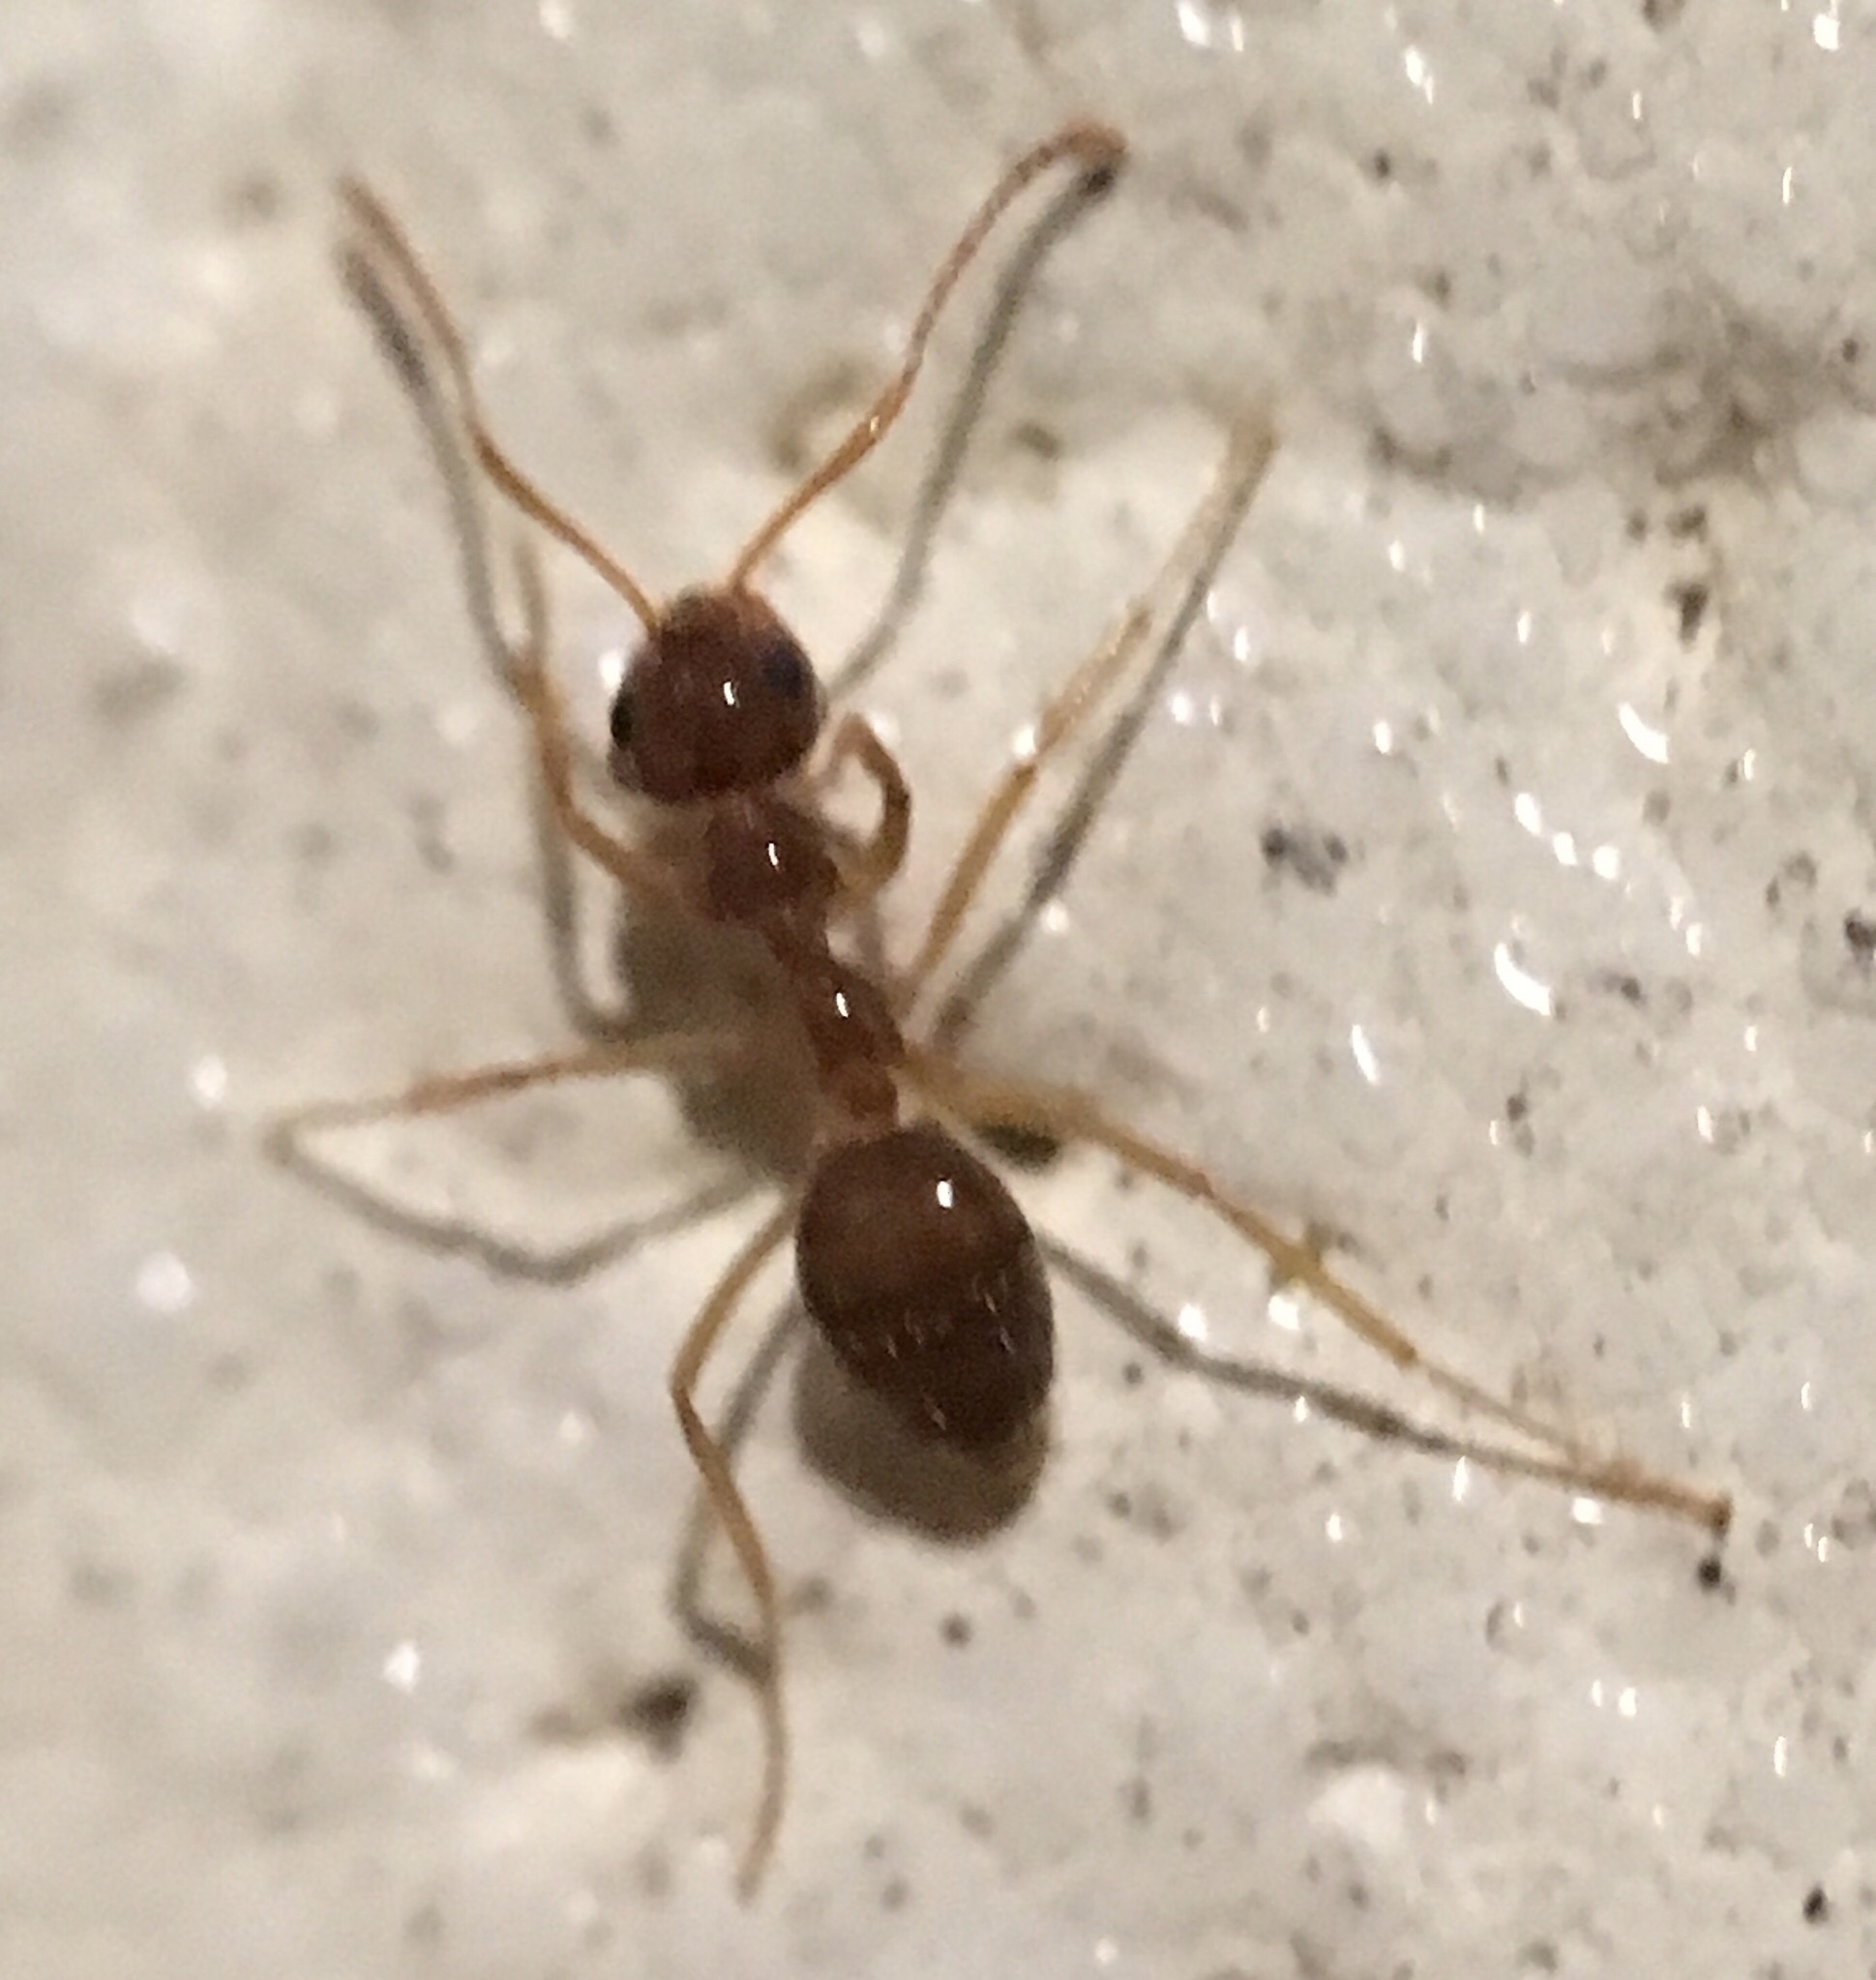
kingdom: Animalia
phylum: Arthropoda
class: Insecta
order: Hymenoptera
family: Formicidae
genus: Prenolepis
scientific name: Prenolepis imparis
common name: Small honey ant
